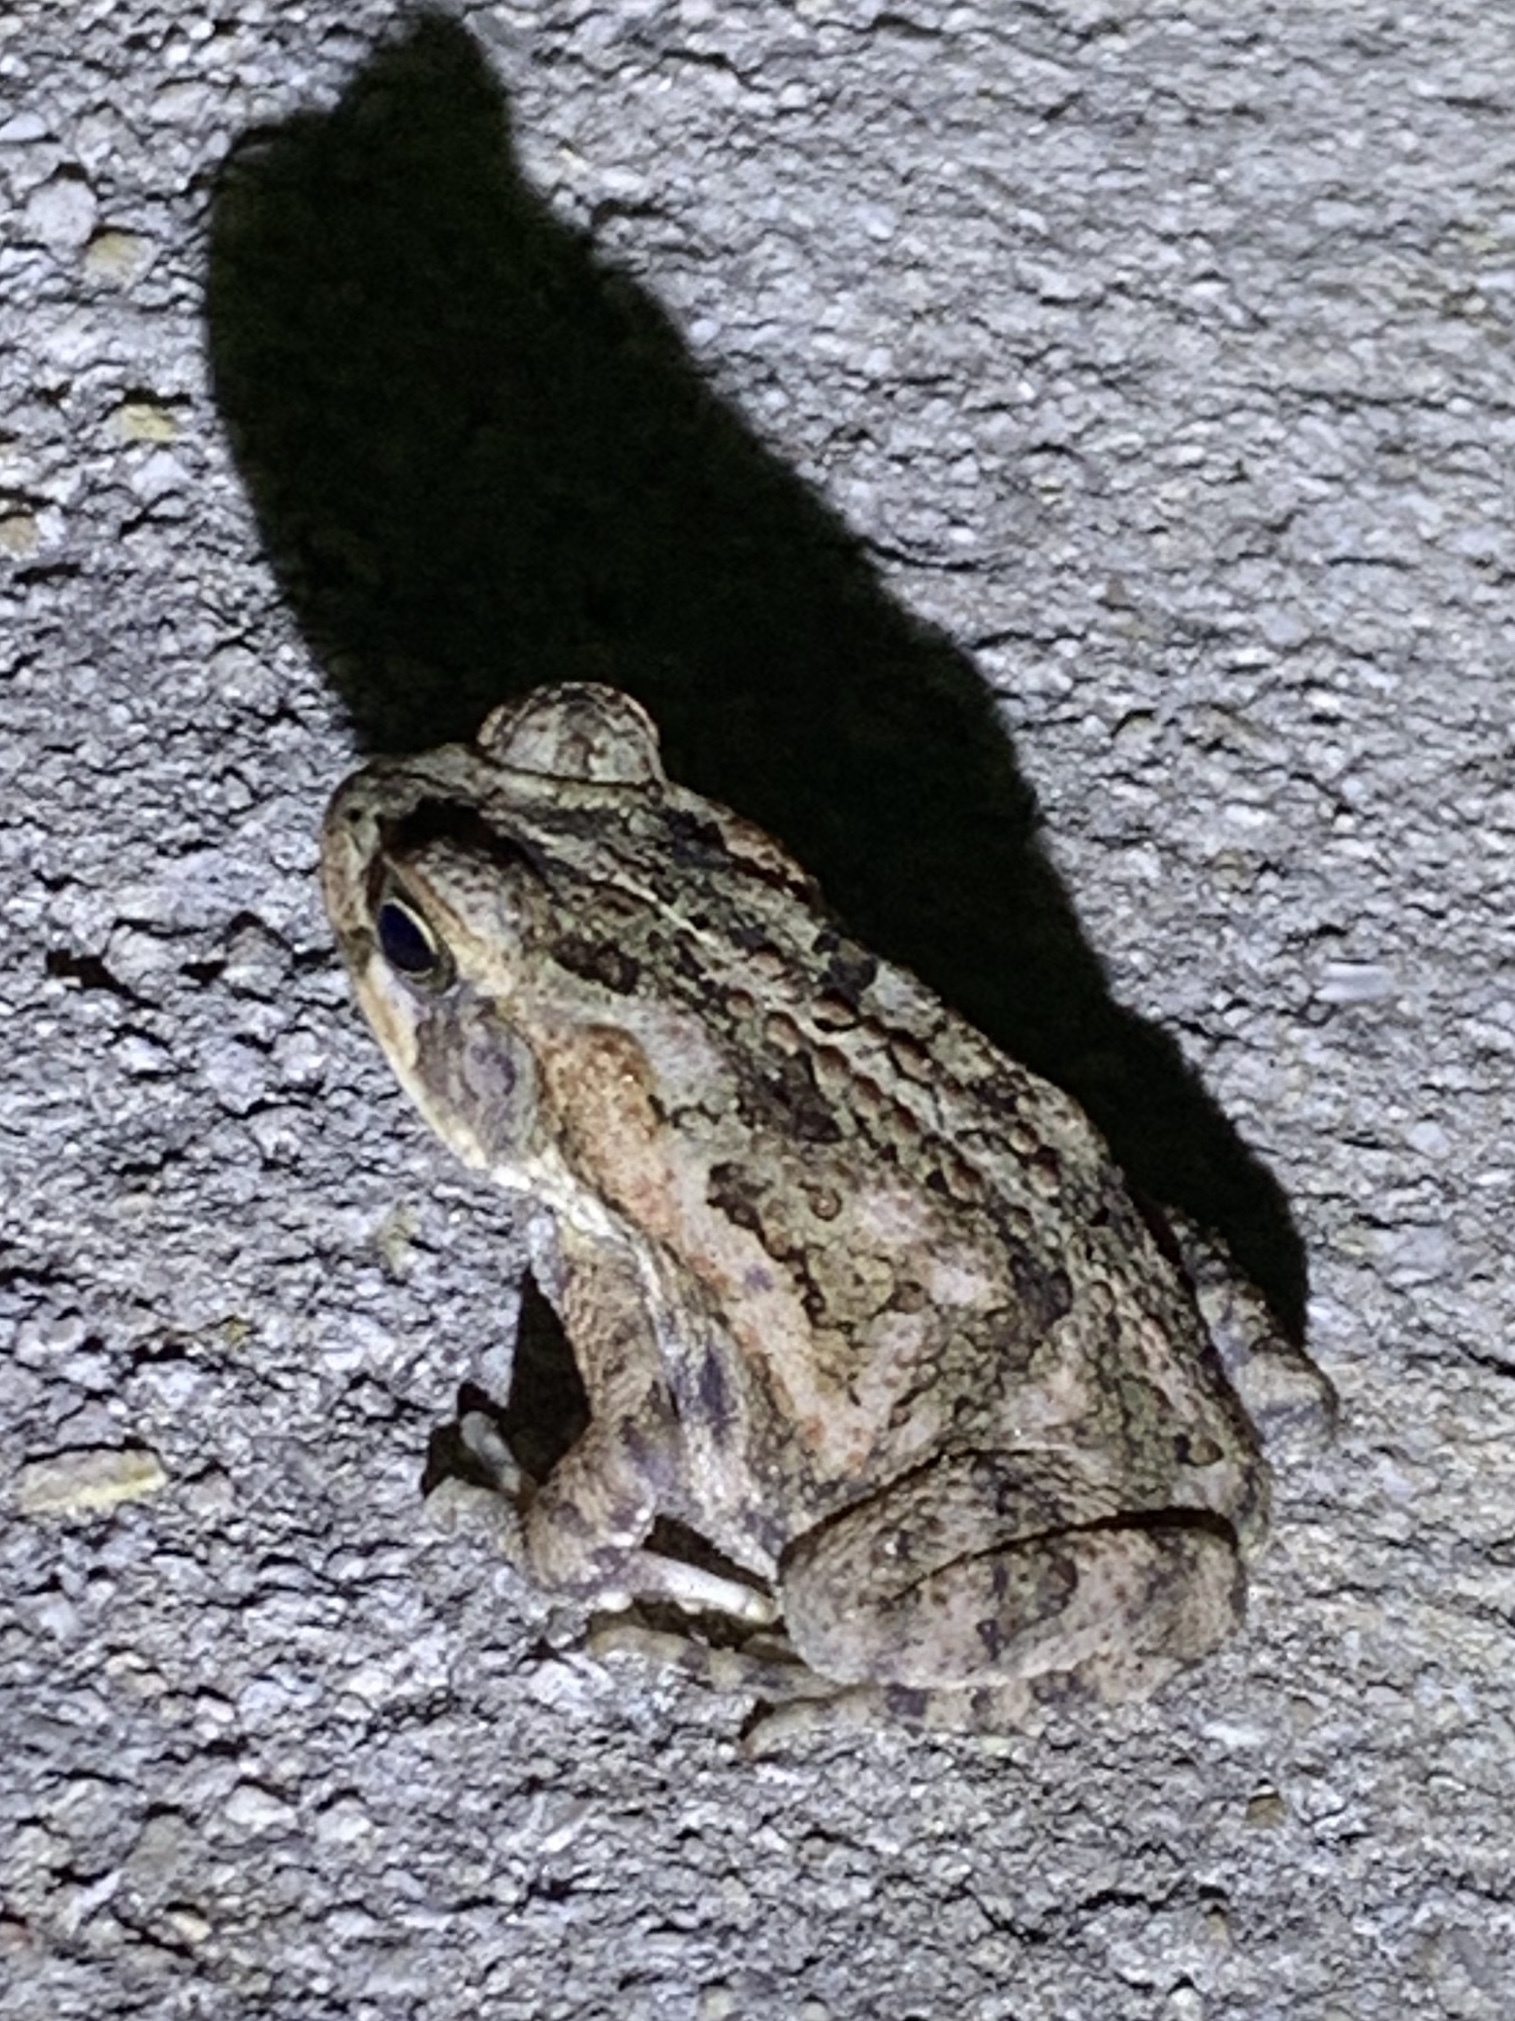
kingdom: Animalia
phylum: Chordata
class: Amphibia
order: Anura
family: Bufonidae
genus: Rhinella
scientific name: Rhinella marina
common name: Cane toad
